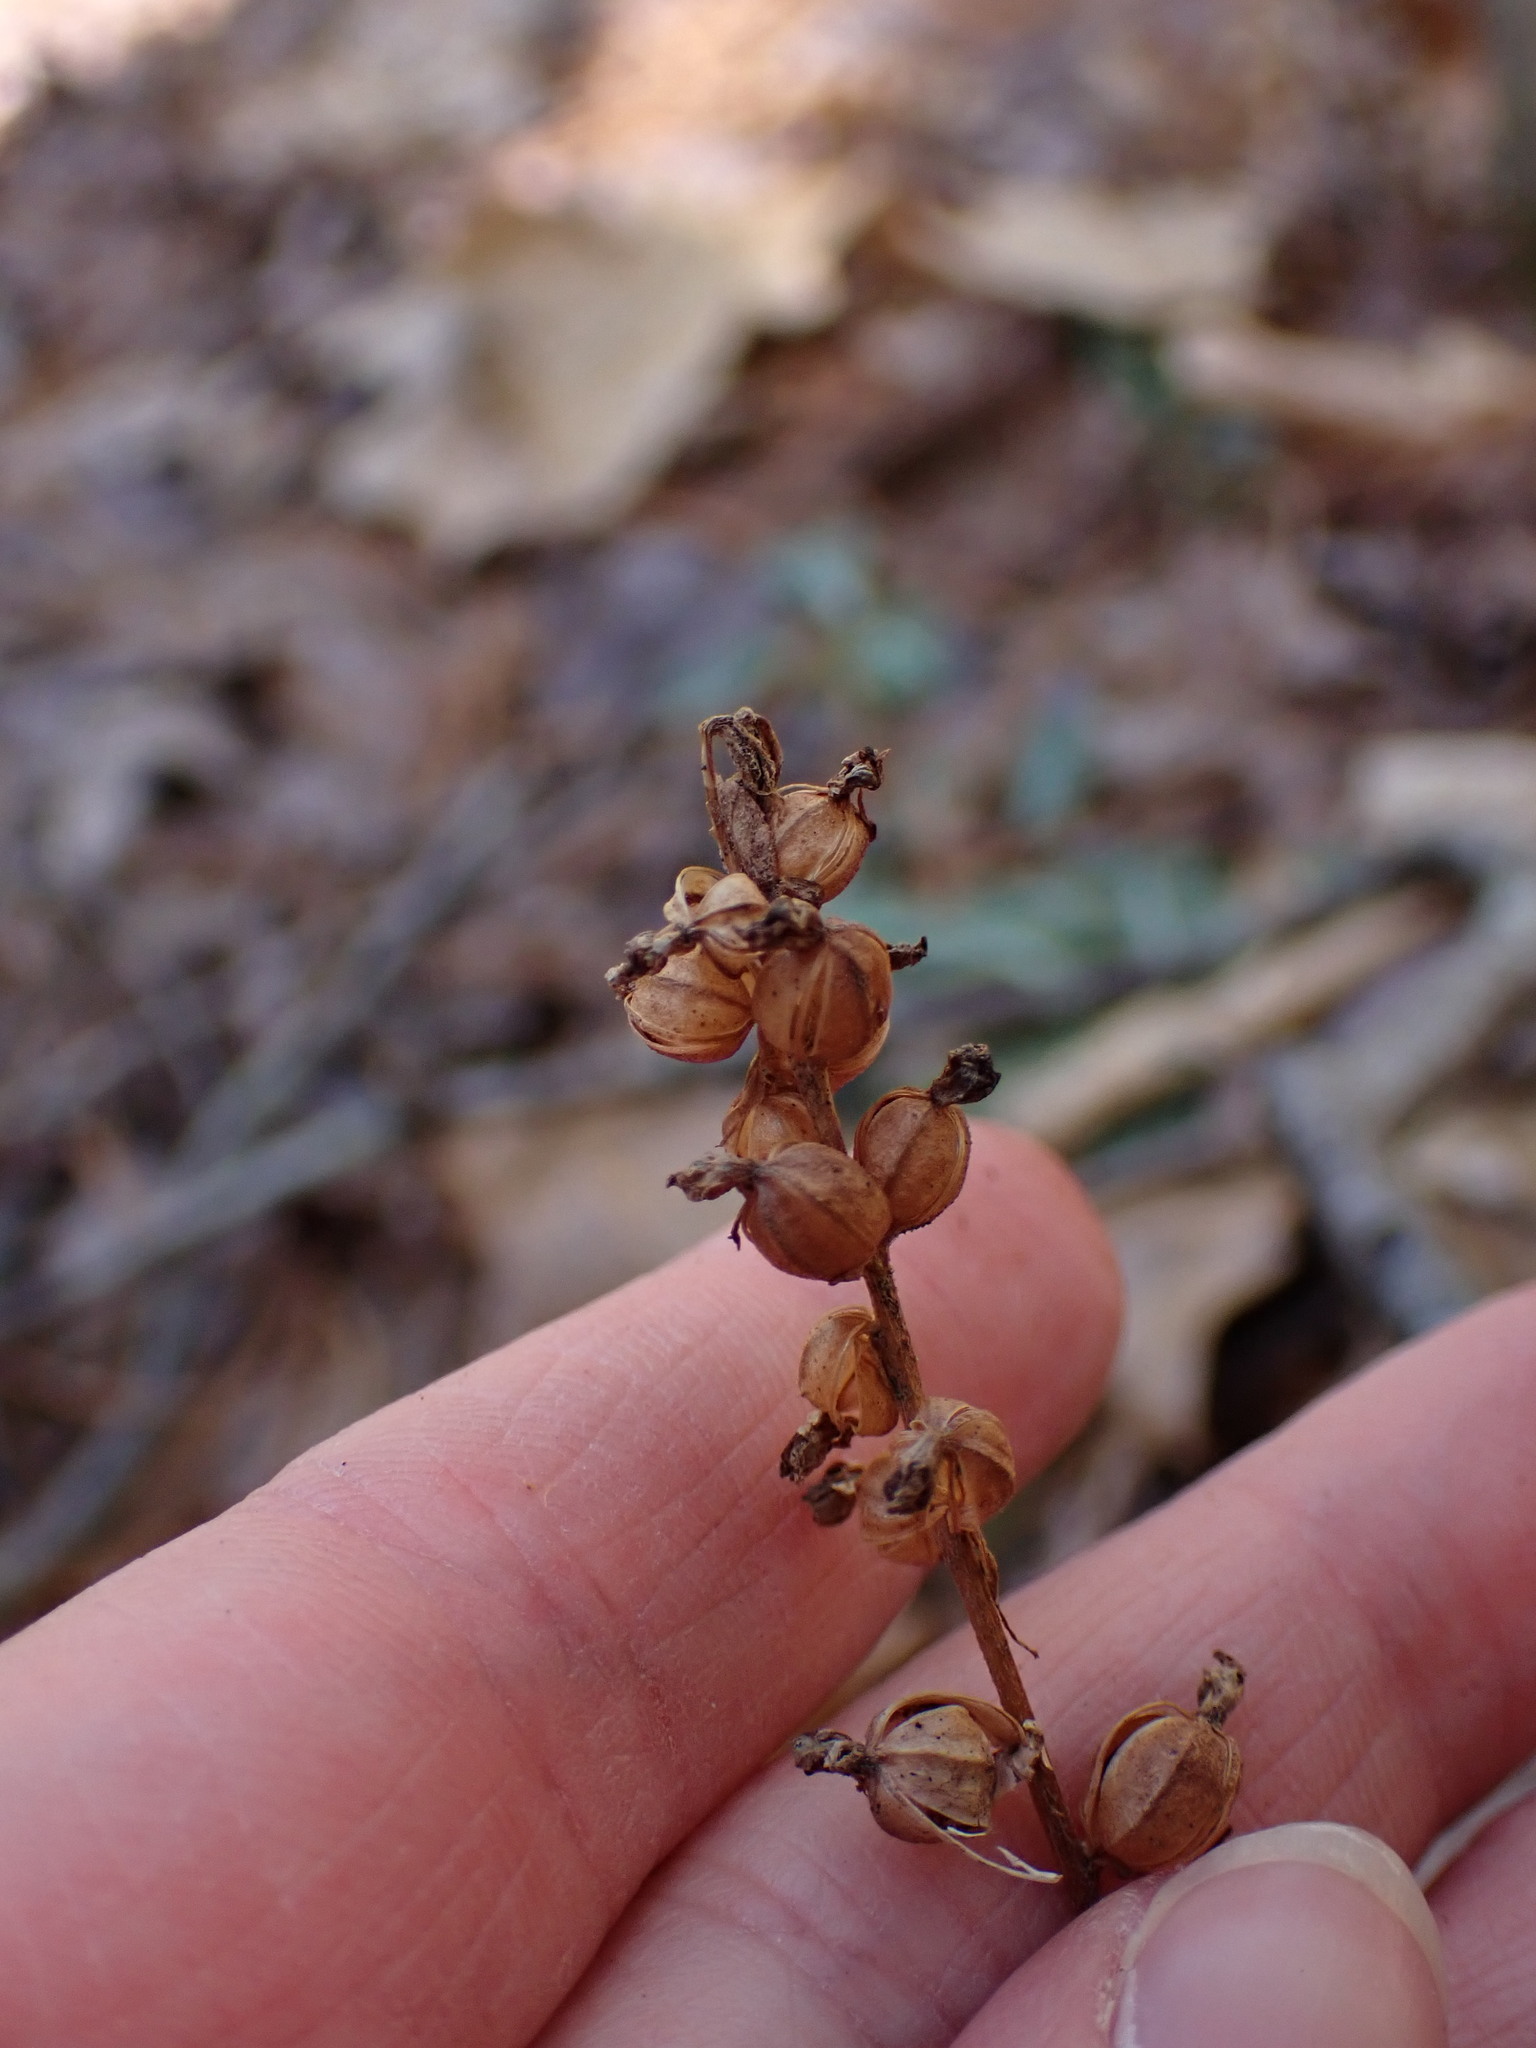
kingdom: Plantae
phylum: Tracheophyta
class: Liliopsida
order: Asparagales
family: Orchidaceae
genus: Goodyera
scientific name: Goodyera pubescens
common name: Downy rattlesnake-plantain
